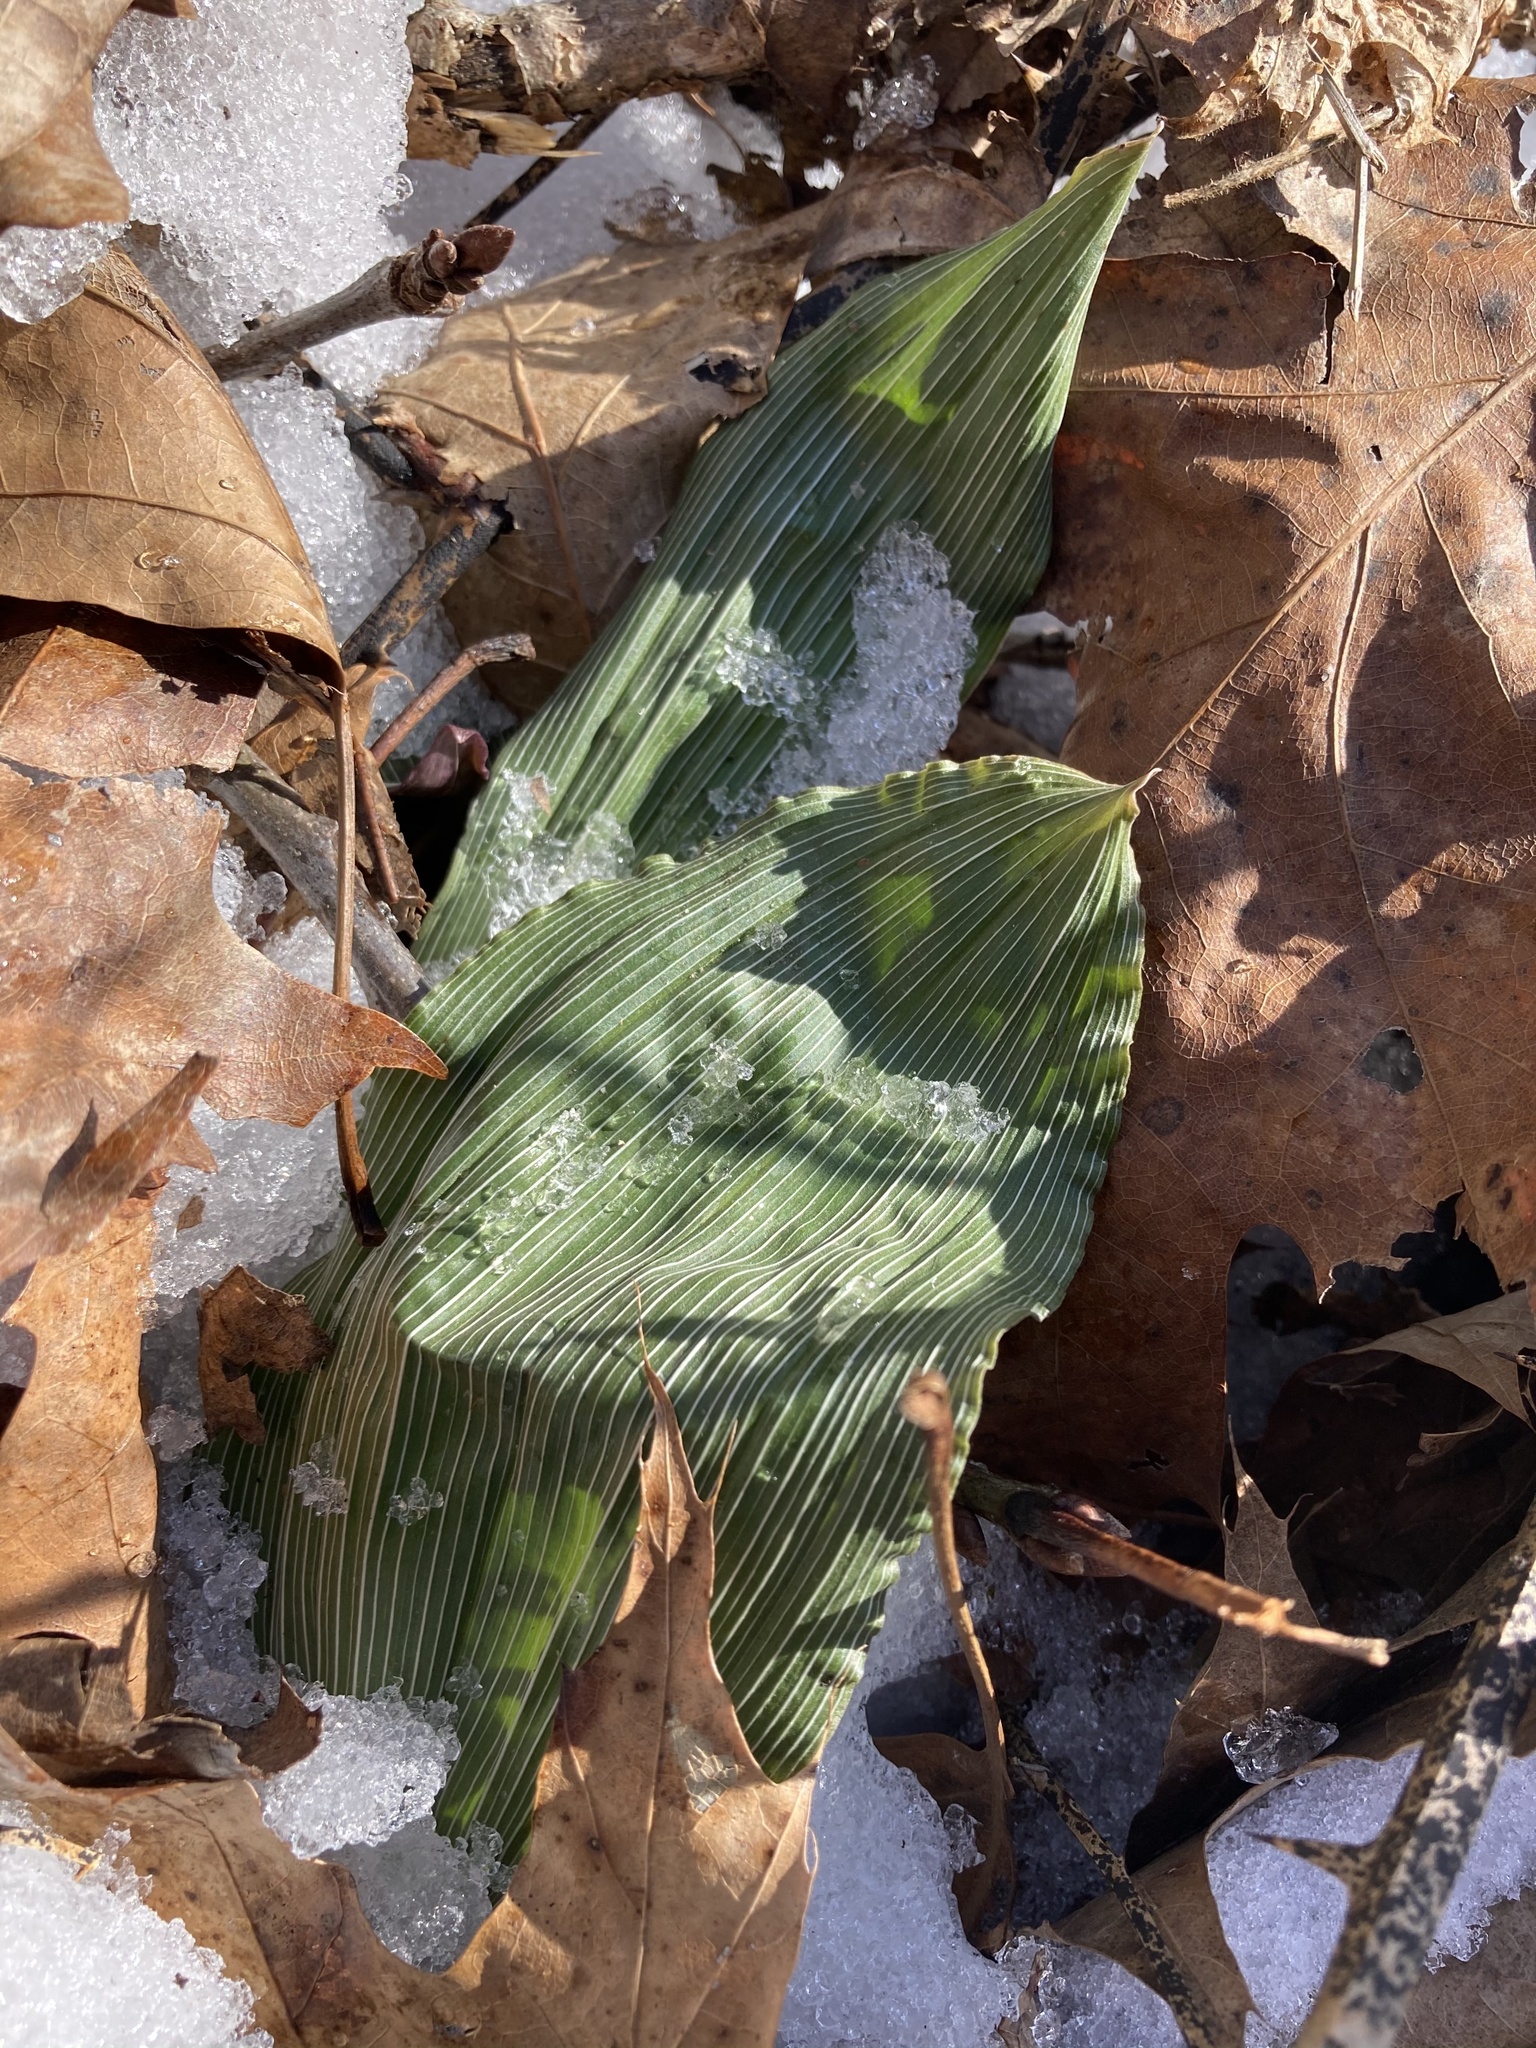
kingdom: Plantae
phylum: Tracheophyta
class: Liliopsida
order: Asparagales
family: Orchidaceae
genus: Aplectrum
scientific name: Aplectrum hyemale
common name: Adam-and-eve
